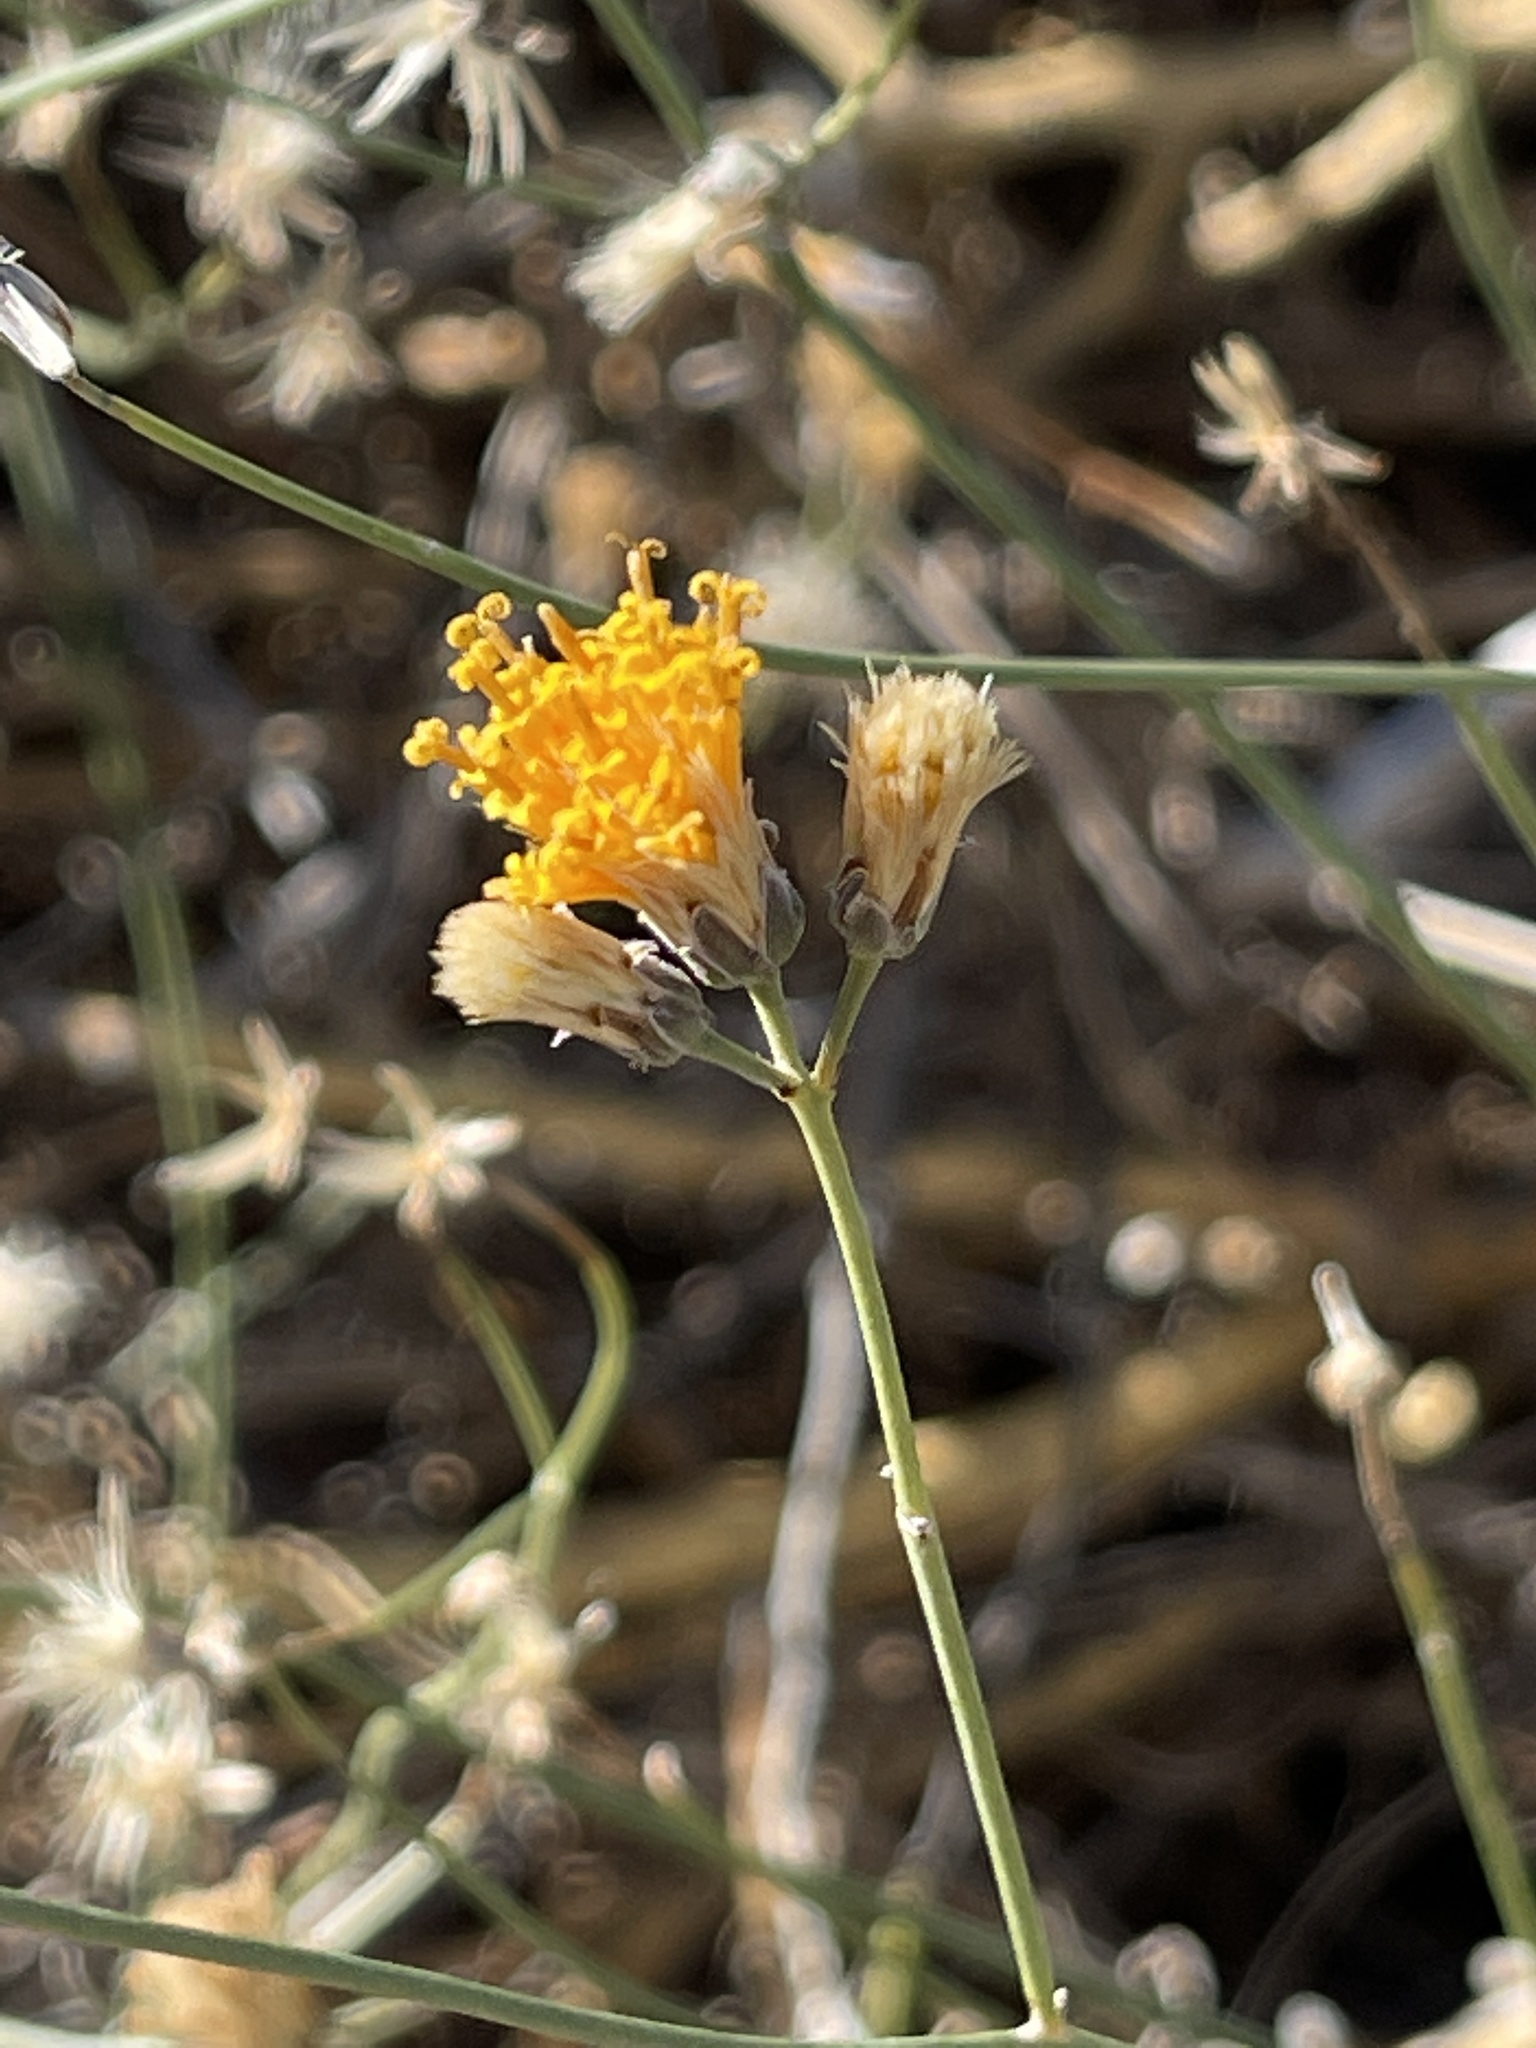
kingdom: Plantae
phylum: Tracheophyta
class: Magnoliopsida
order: Asterales
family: Asteraceae
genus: Bebbia
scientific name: Bebbia juncea
